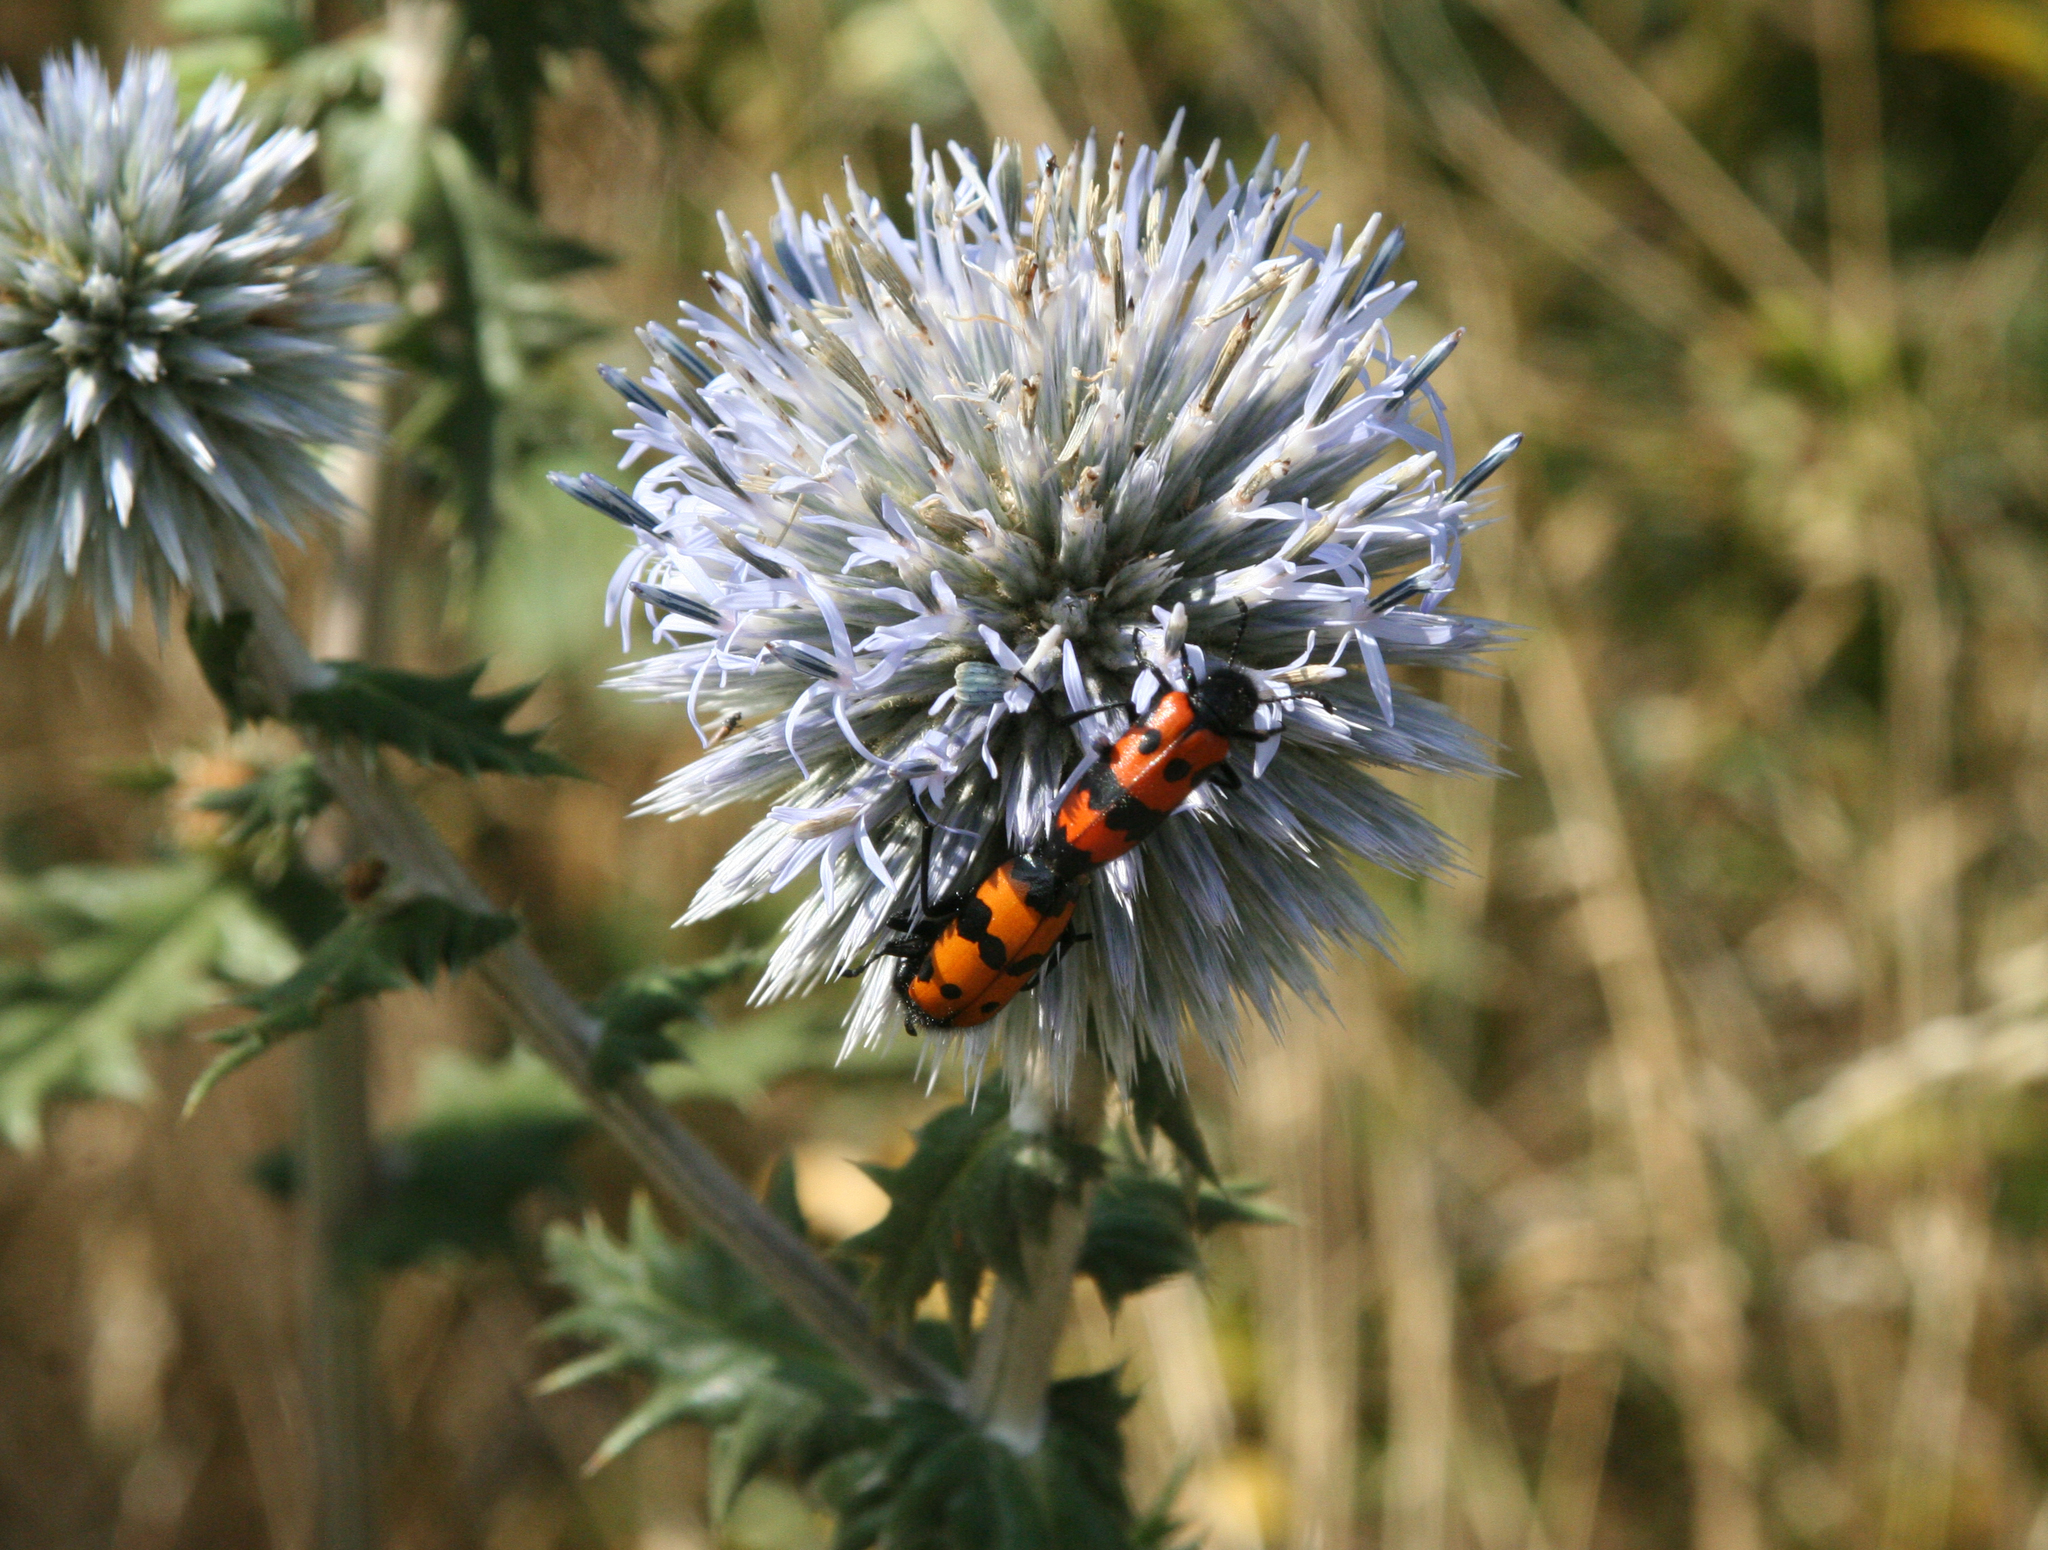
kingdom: Plantae
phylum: Tracheophyta
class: Magnoliopsida
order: Asterales
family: Asteraceae
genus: Echinops
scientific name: Echinops sphaerocephalus
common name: Glandular globe-thistle
